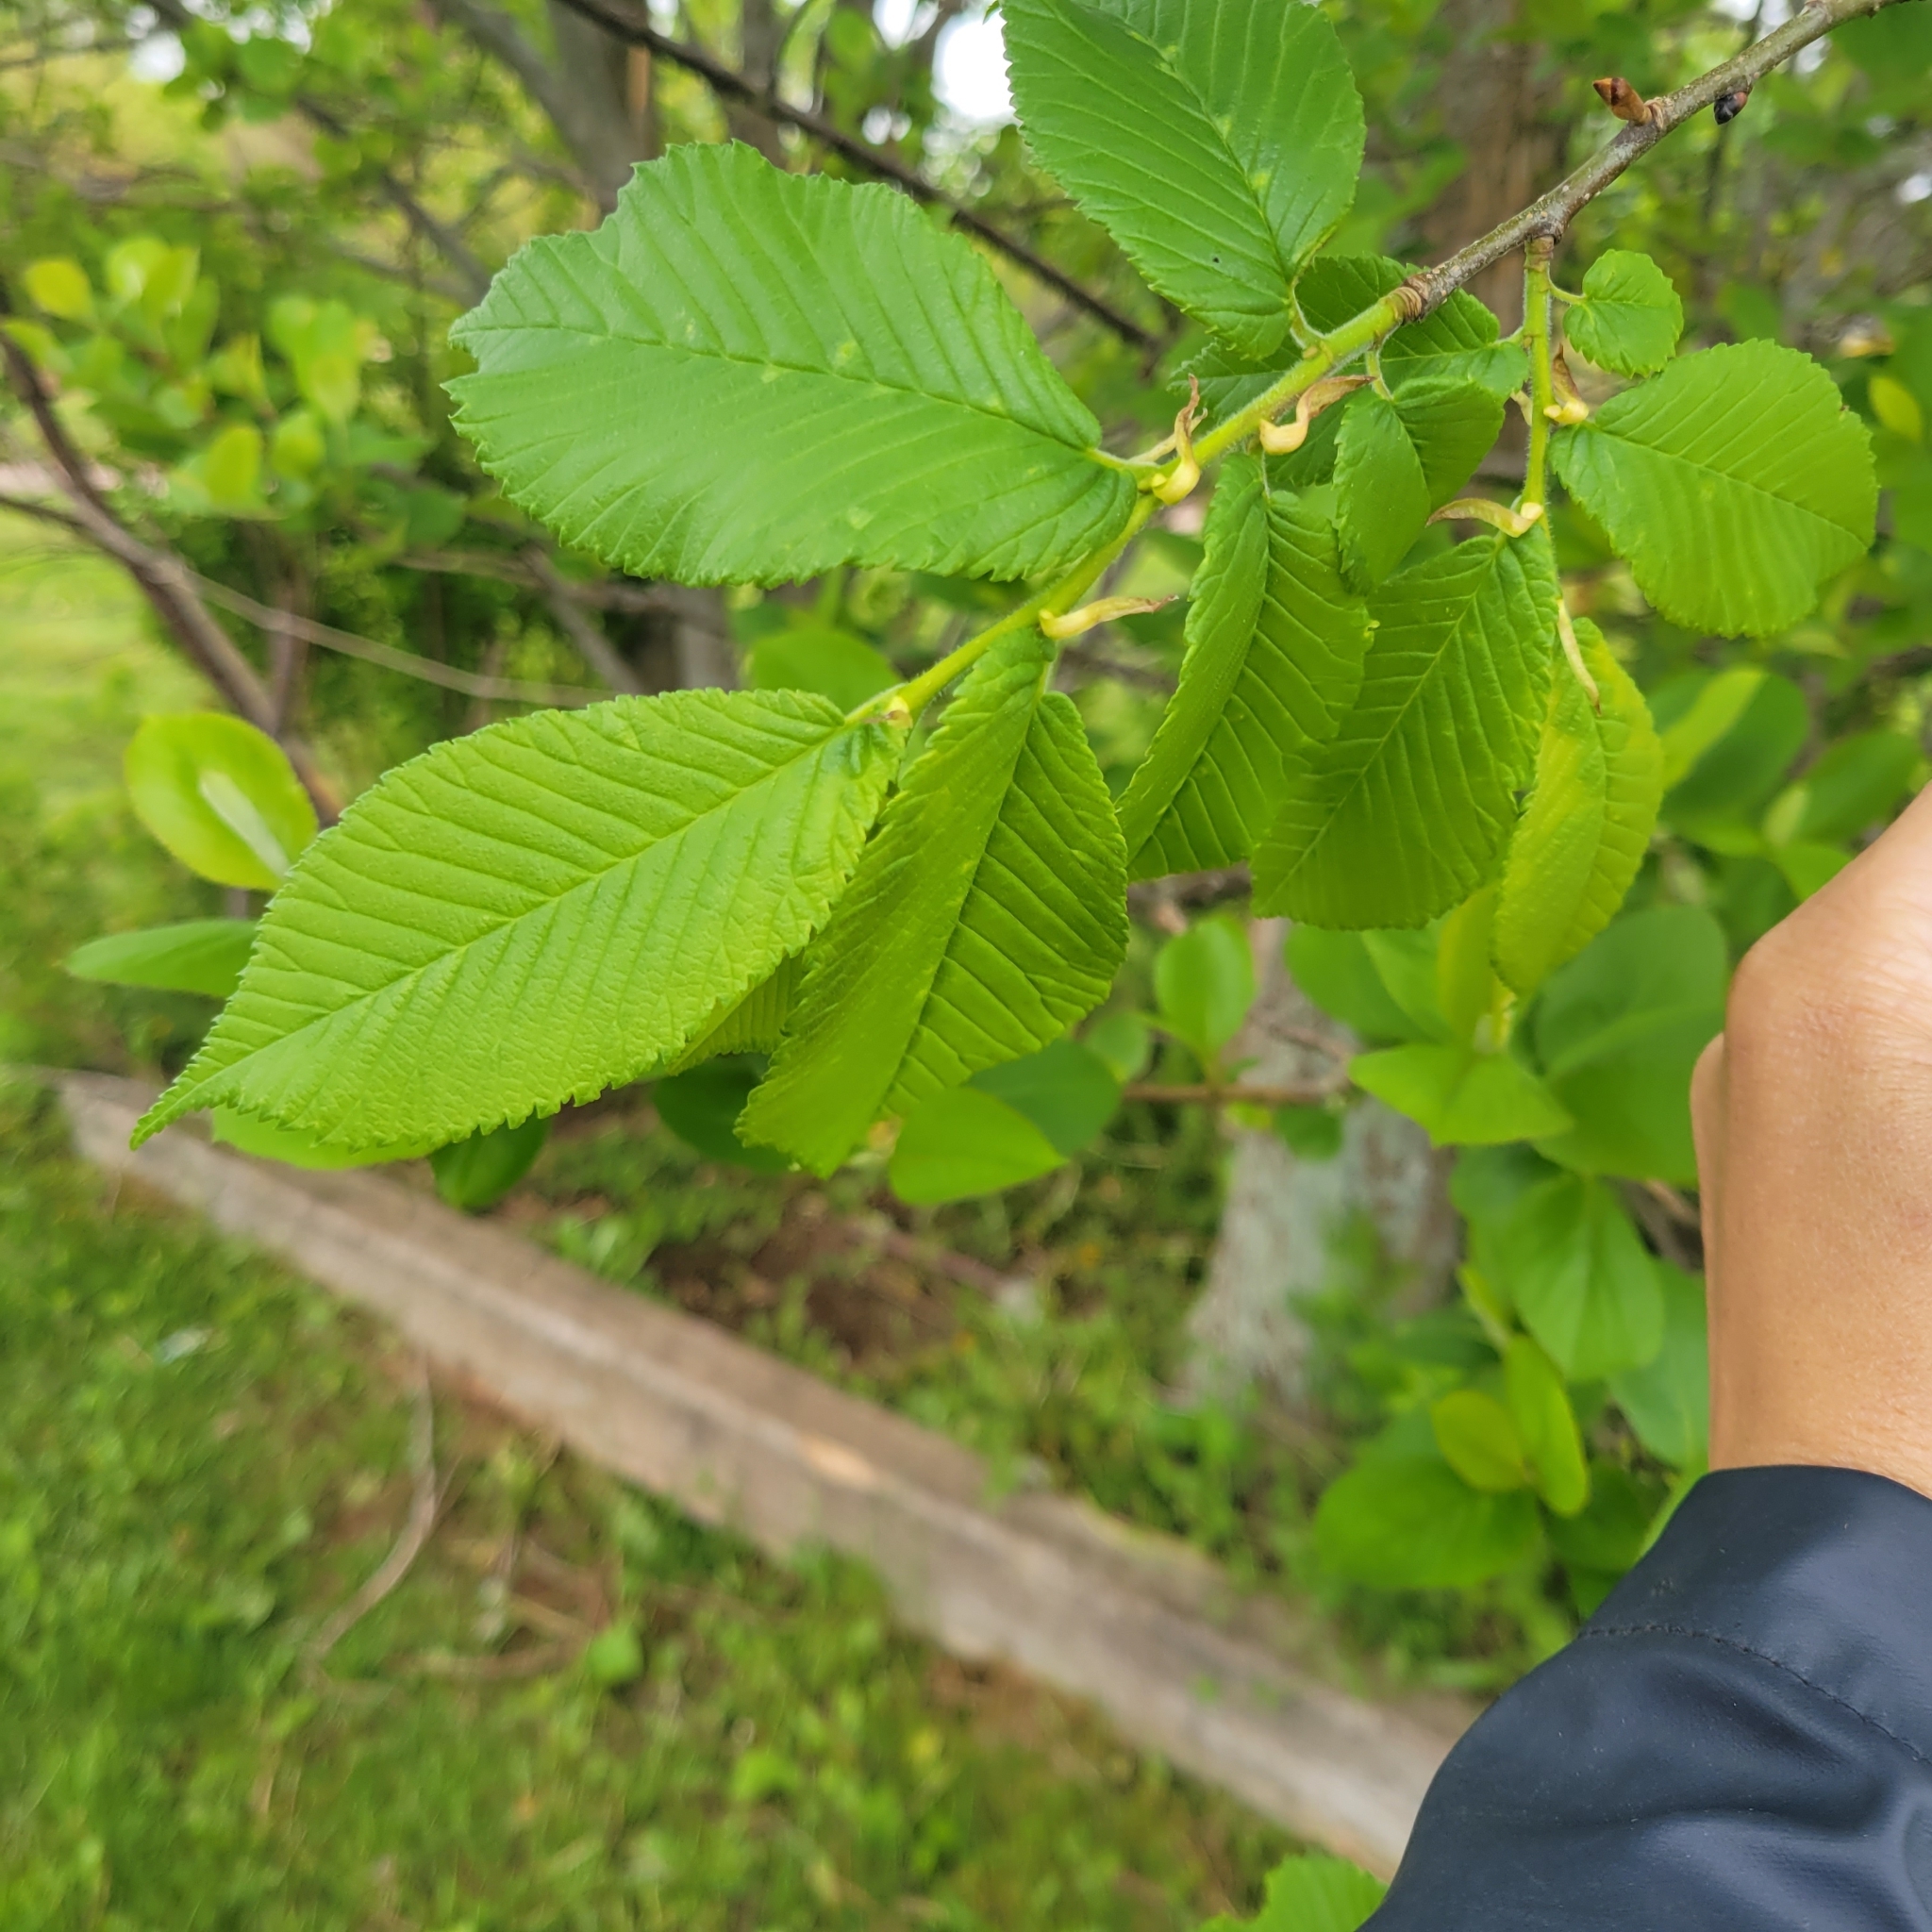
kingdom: Plantae
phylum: Tracheophyta
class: Magnoliopsida
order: Rosales
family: Ulmaceae
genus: Ulmus
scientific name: Ulmus glabra
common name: Wych elm
